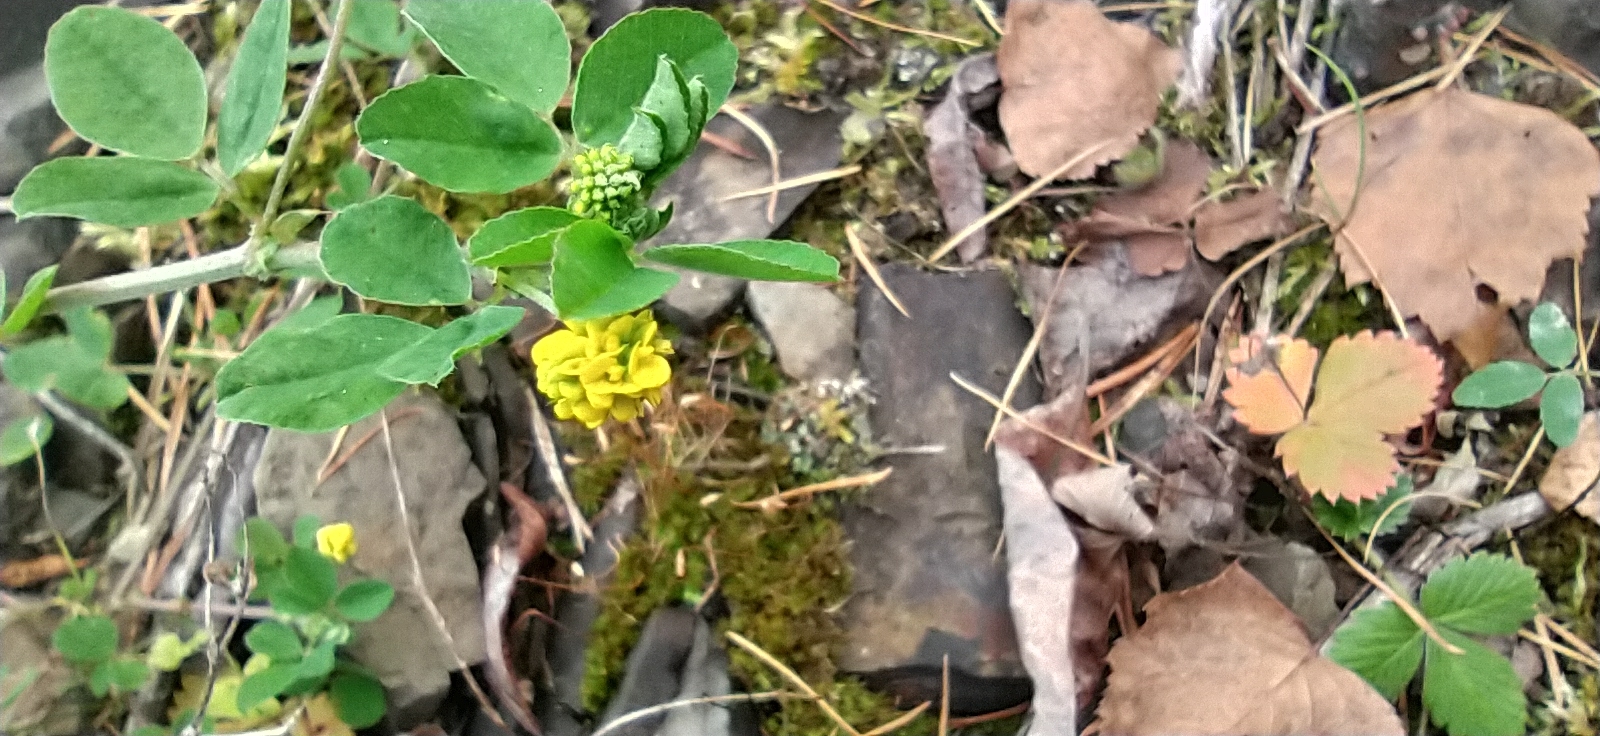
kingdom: Plantae
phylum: Tracheophyta
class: Magnoliopsida
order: Fabales
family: Fabaceae
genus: Medicago
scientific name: Medicago lupulina
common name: Black medick
